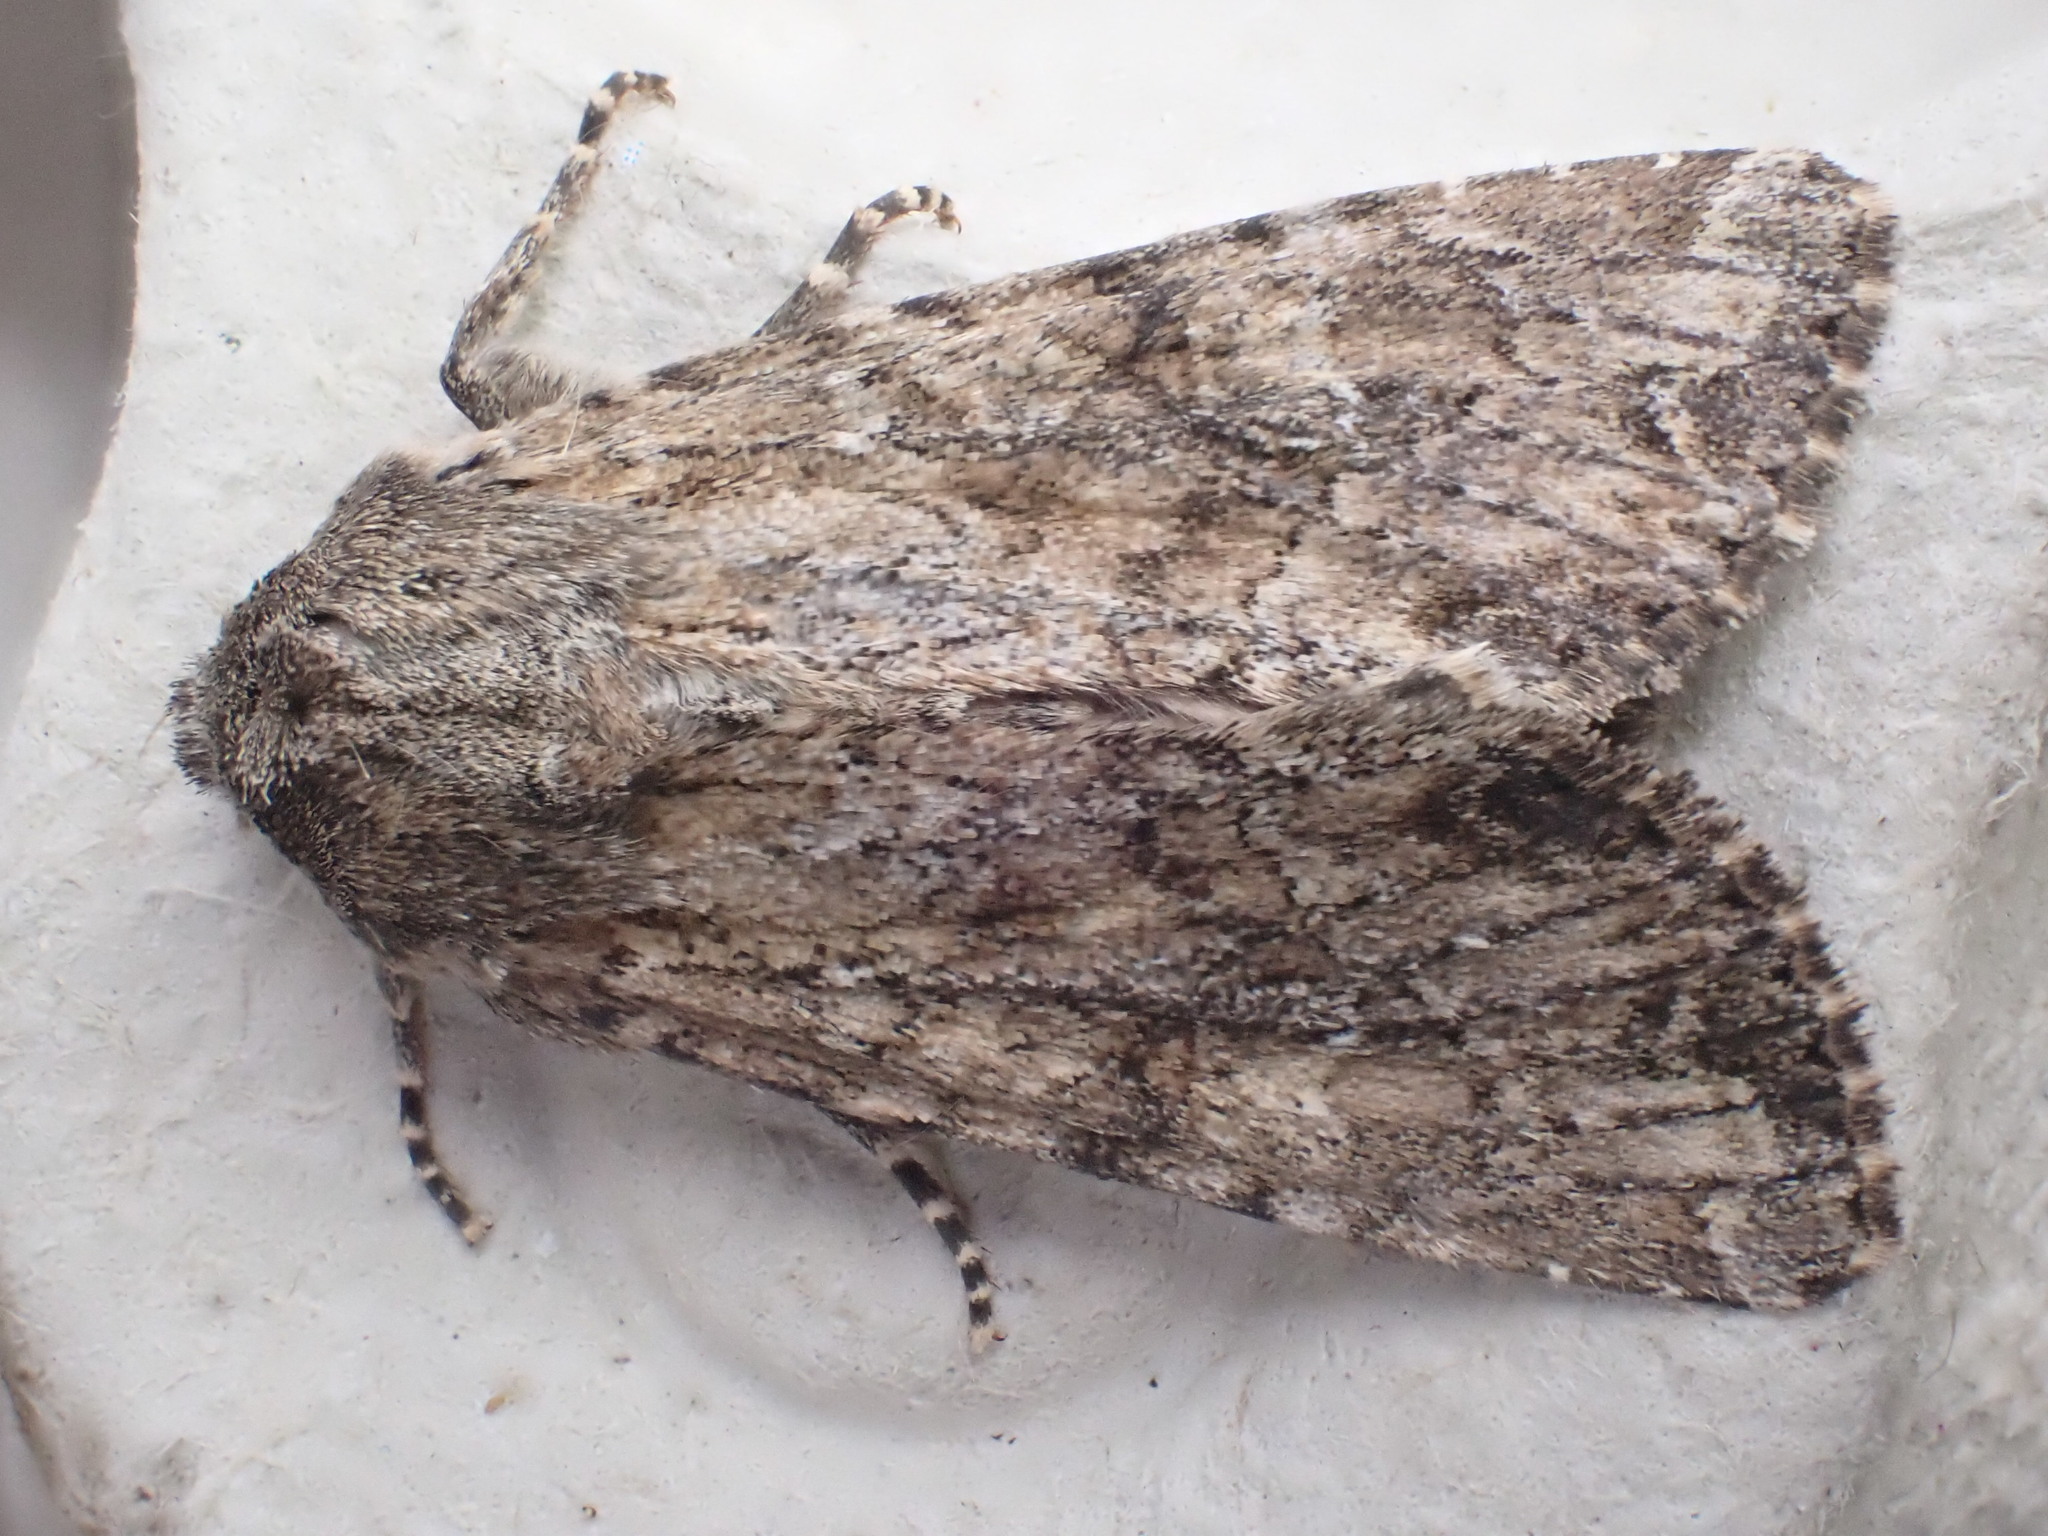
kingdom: Animalia
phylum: Arthropoda
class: Insecta
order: Lepidoptera
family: Noctuidae
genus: Apamea
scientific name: Apamea anceps
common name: Large nutmeg
